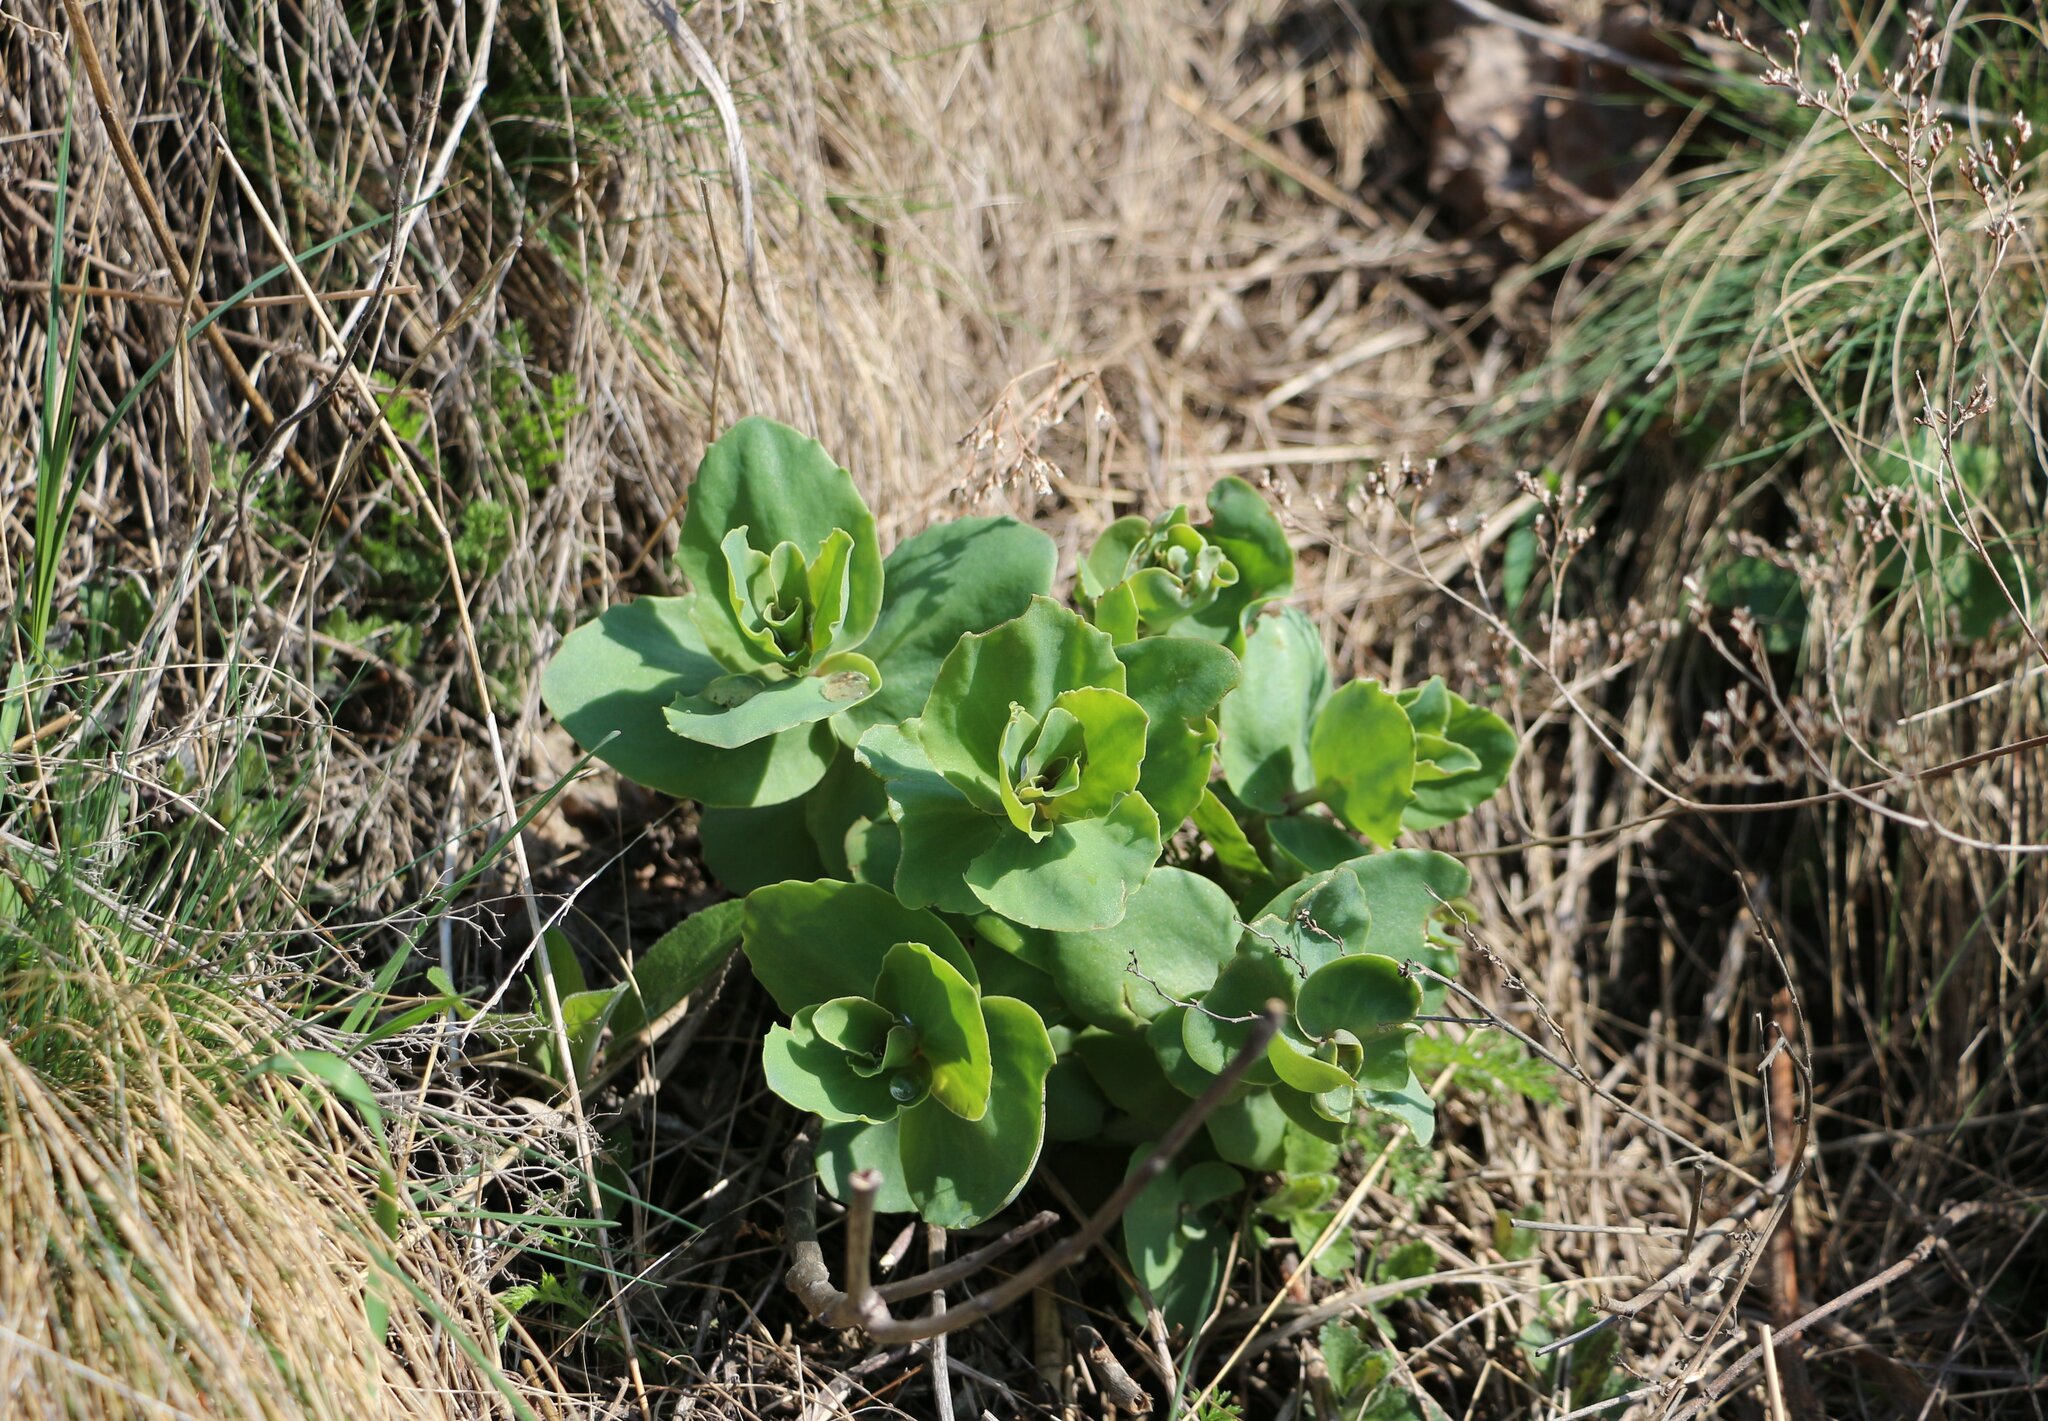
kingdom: Plantae
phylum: Tracheophyta
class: Magnoliopsida
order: Saxifragales
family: Crassulaceae
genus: Hylotelephium
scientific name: Hylotelephium maximum
